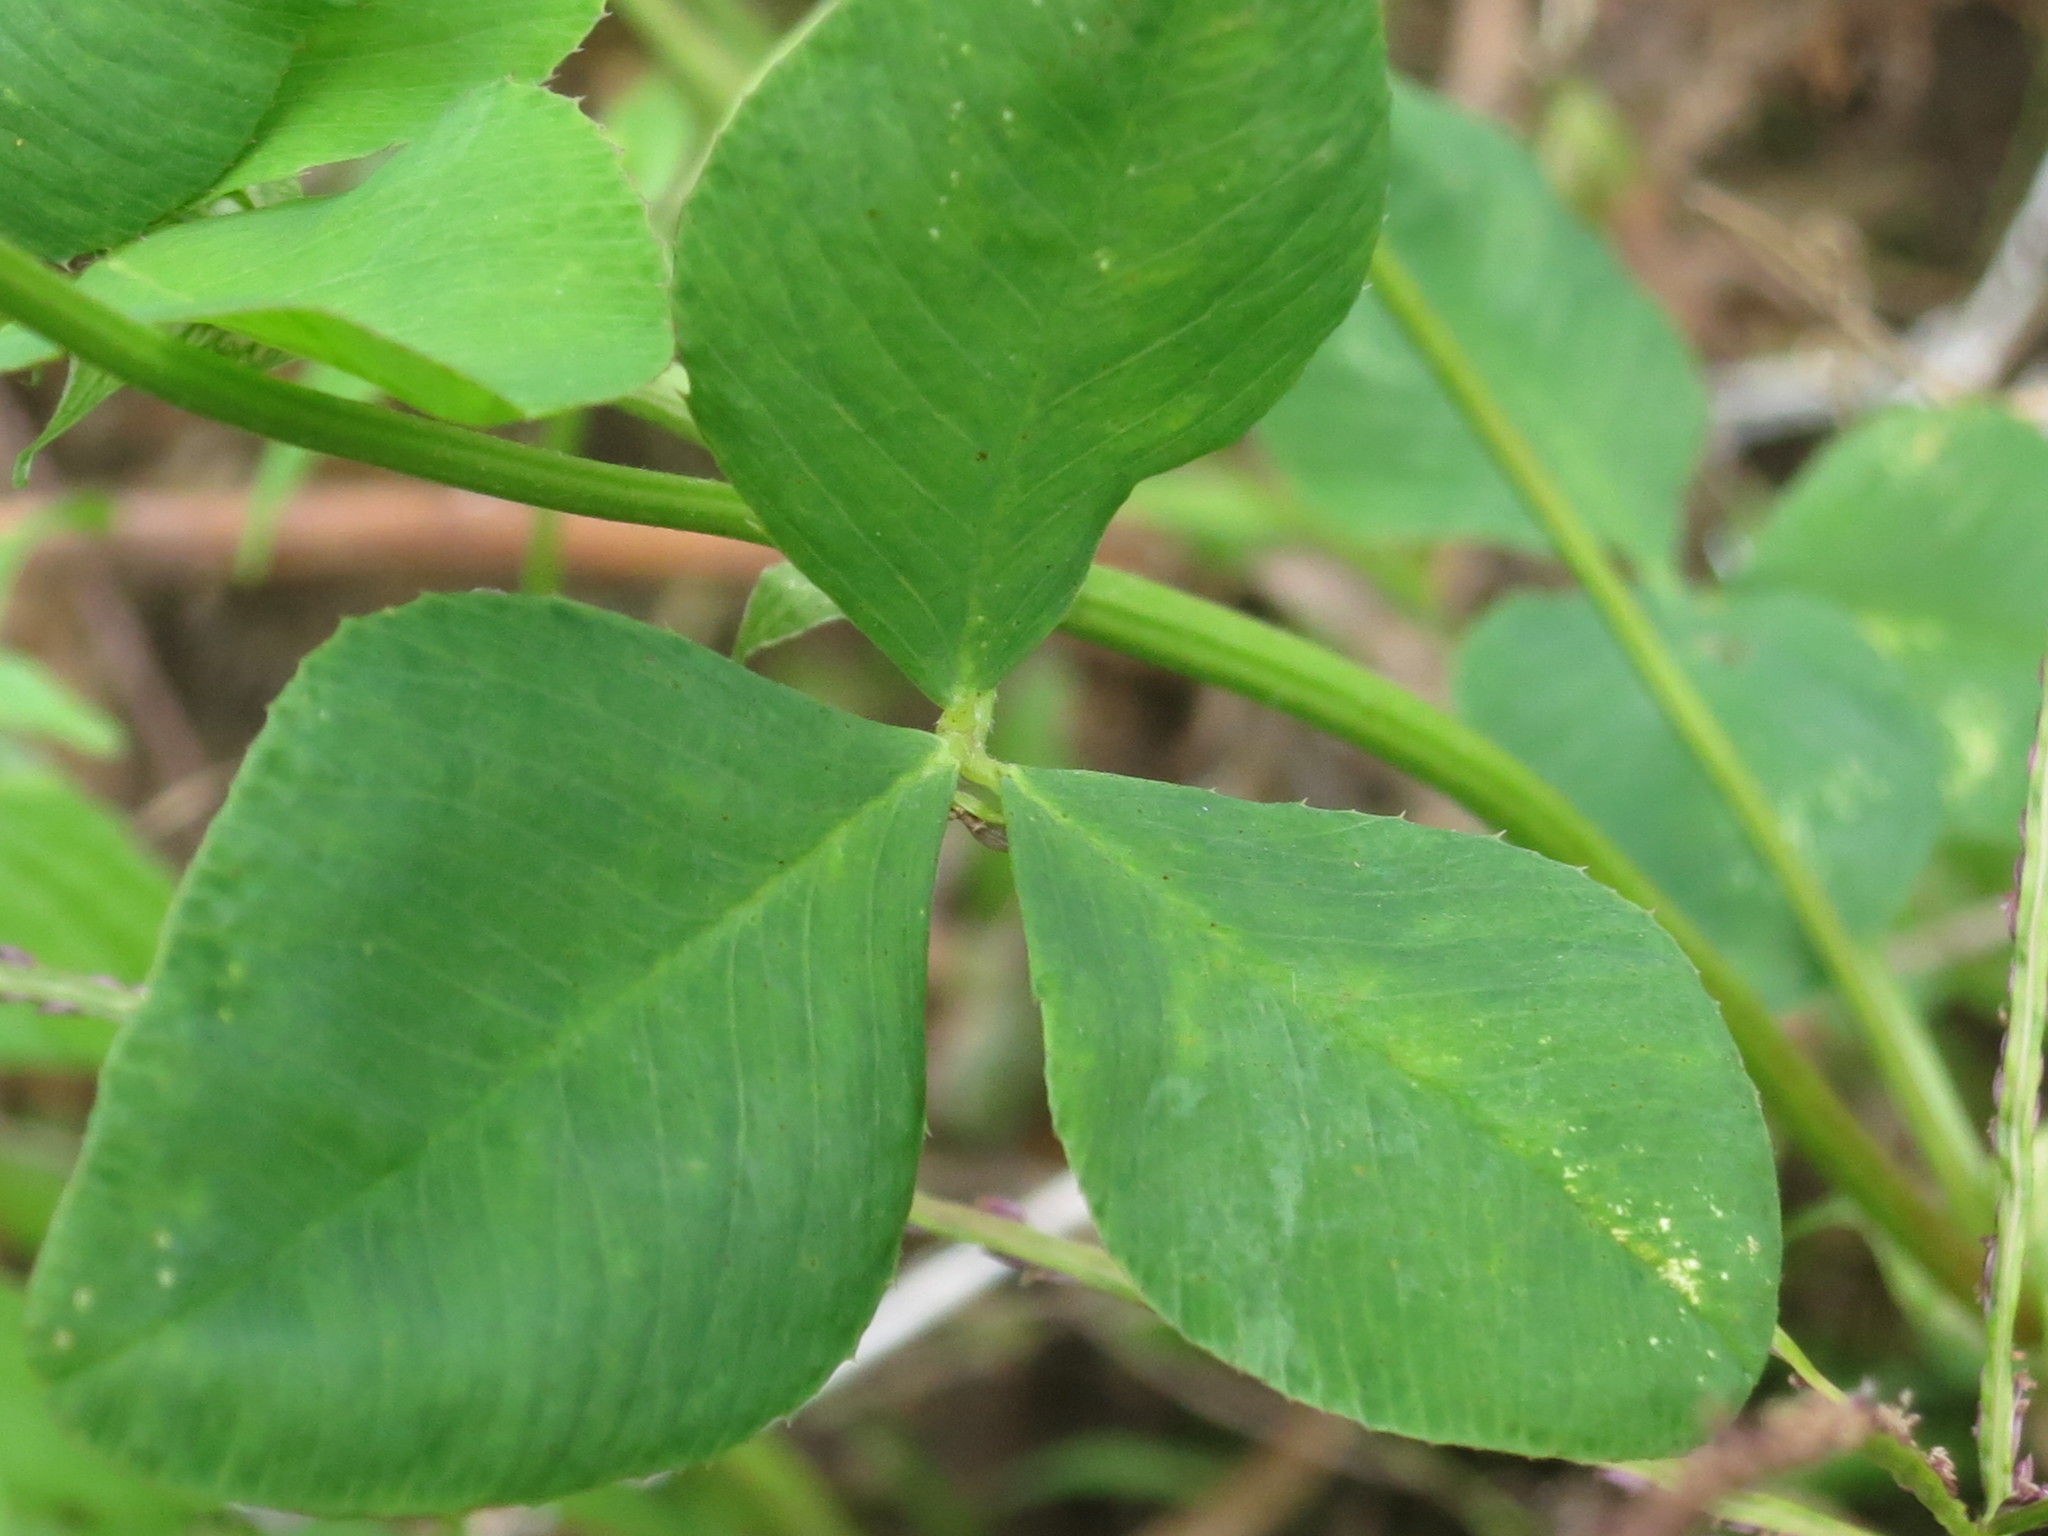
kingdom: Plantae
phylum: Tracheophyta
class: Magnoliopsida
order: Fabales
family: Fabaceae
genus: Trifolium
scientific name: Trifolium hybridum
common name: Alsike clover
